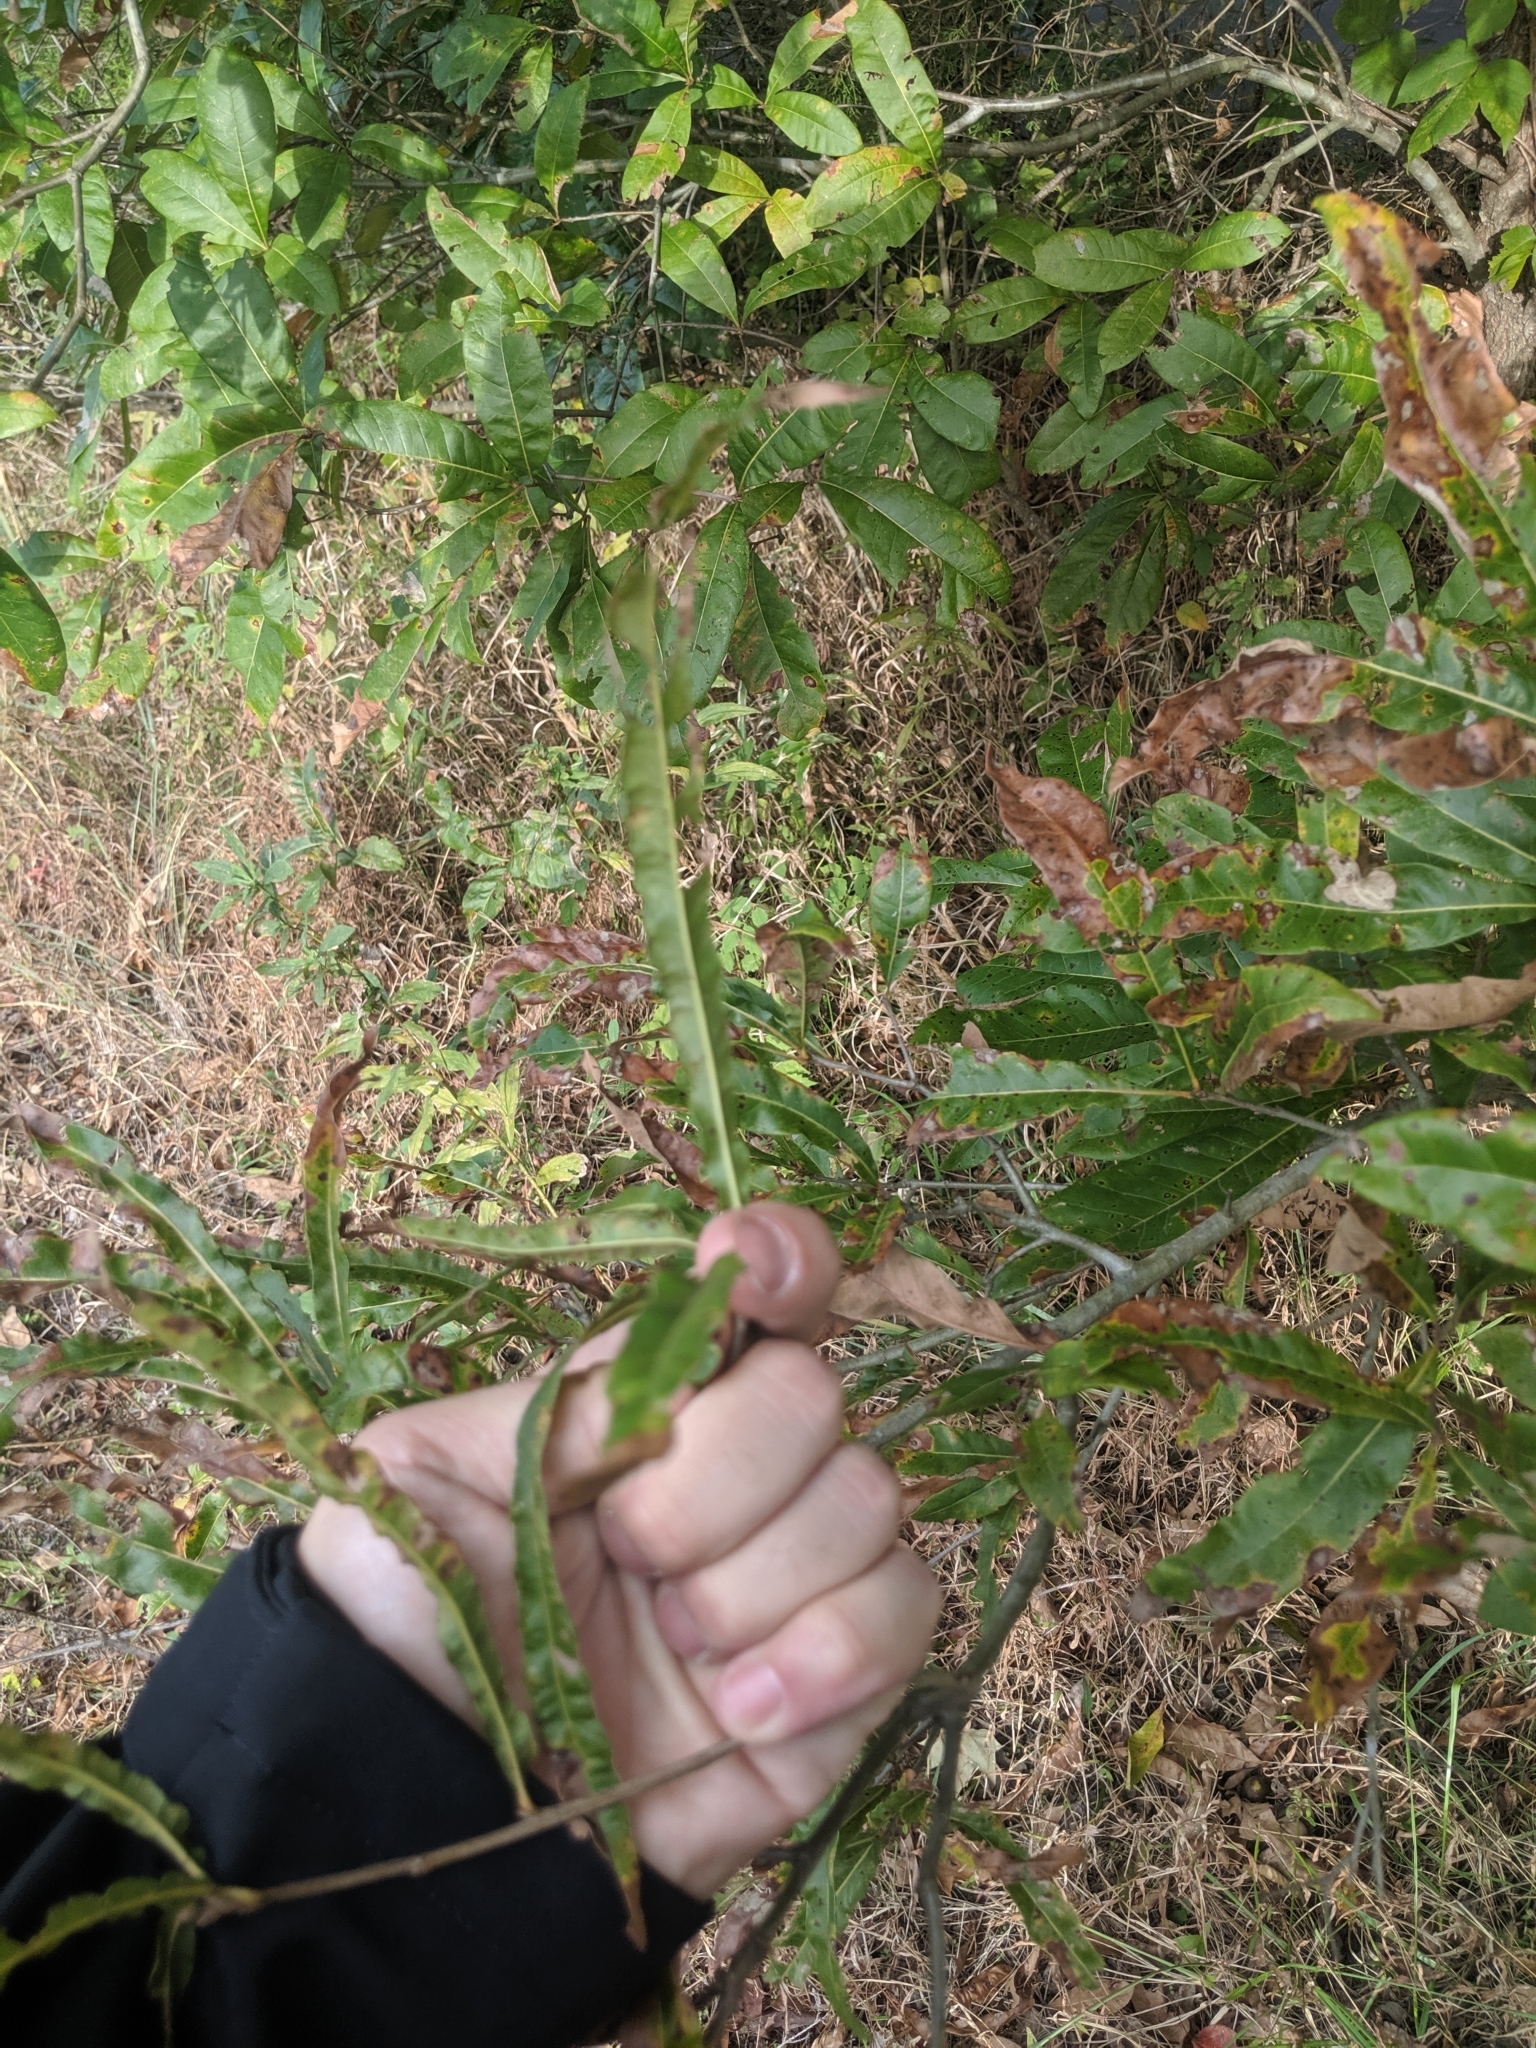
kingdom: Plantae
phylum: Tracheophyta
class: Magnoliopsida
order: Fagales
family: Fagaceae
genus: Quercus
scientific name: Quercus phellos
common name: Willow oak
